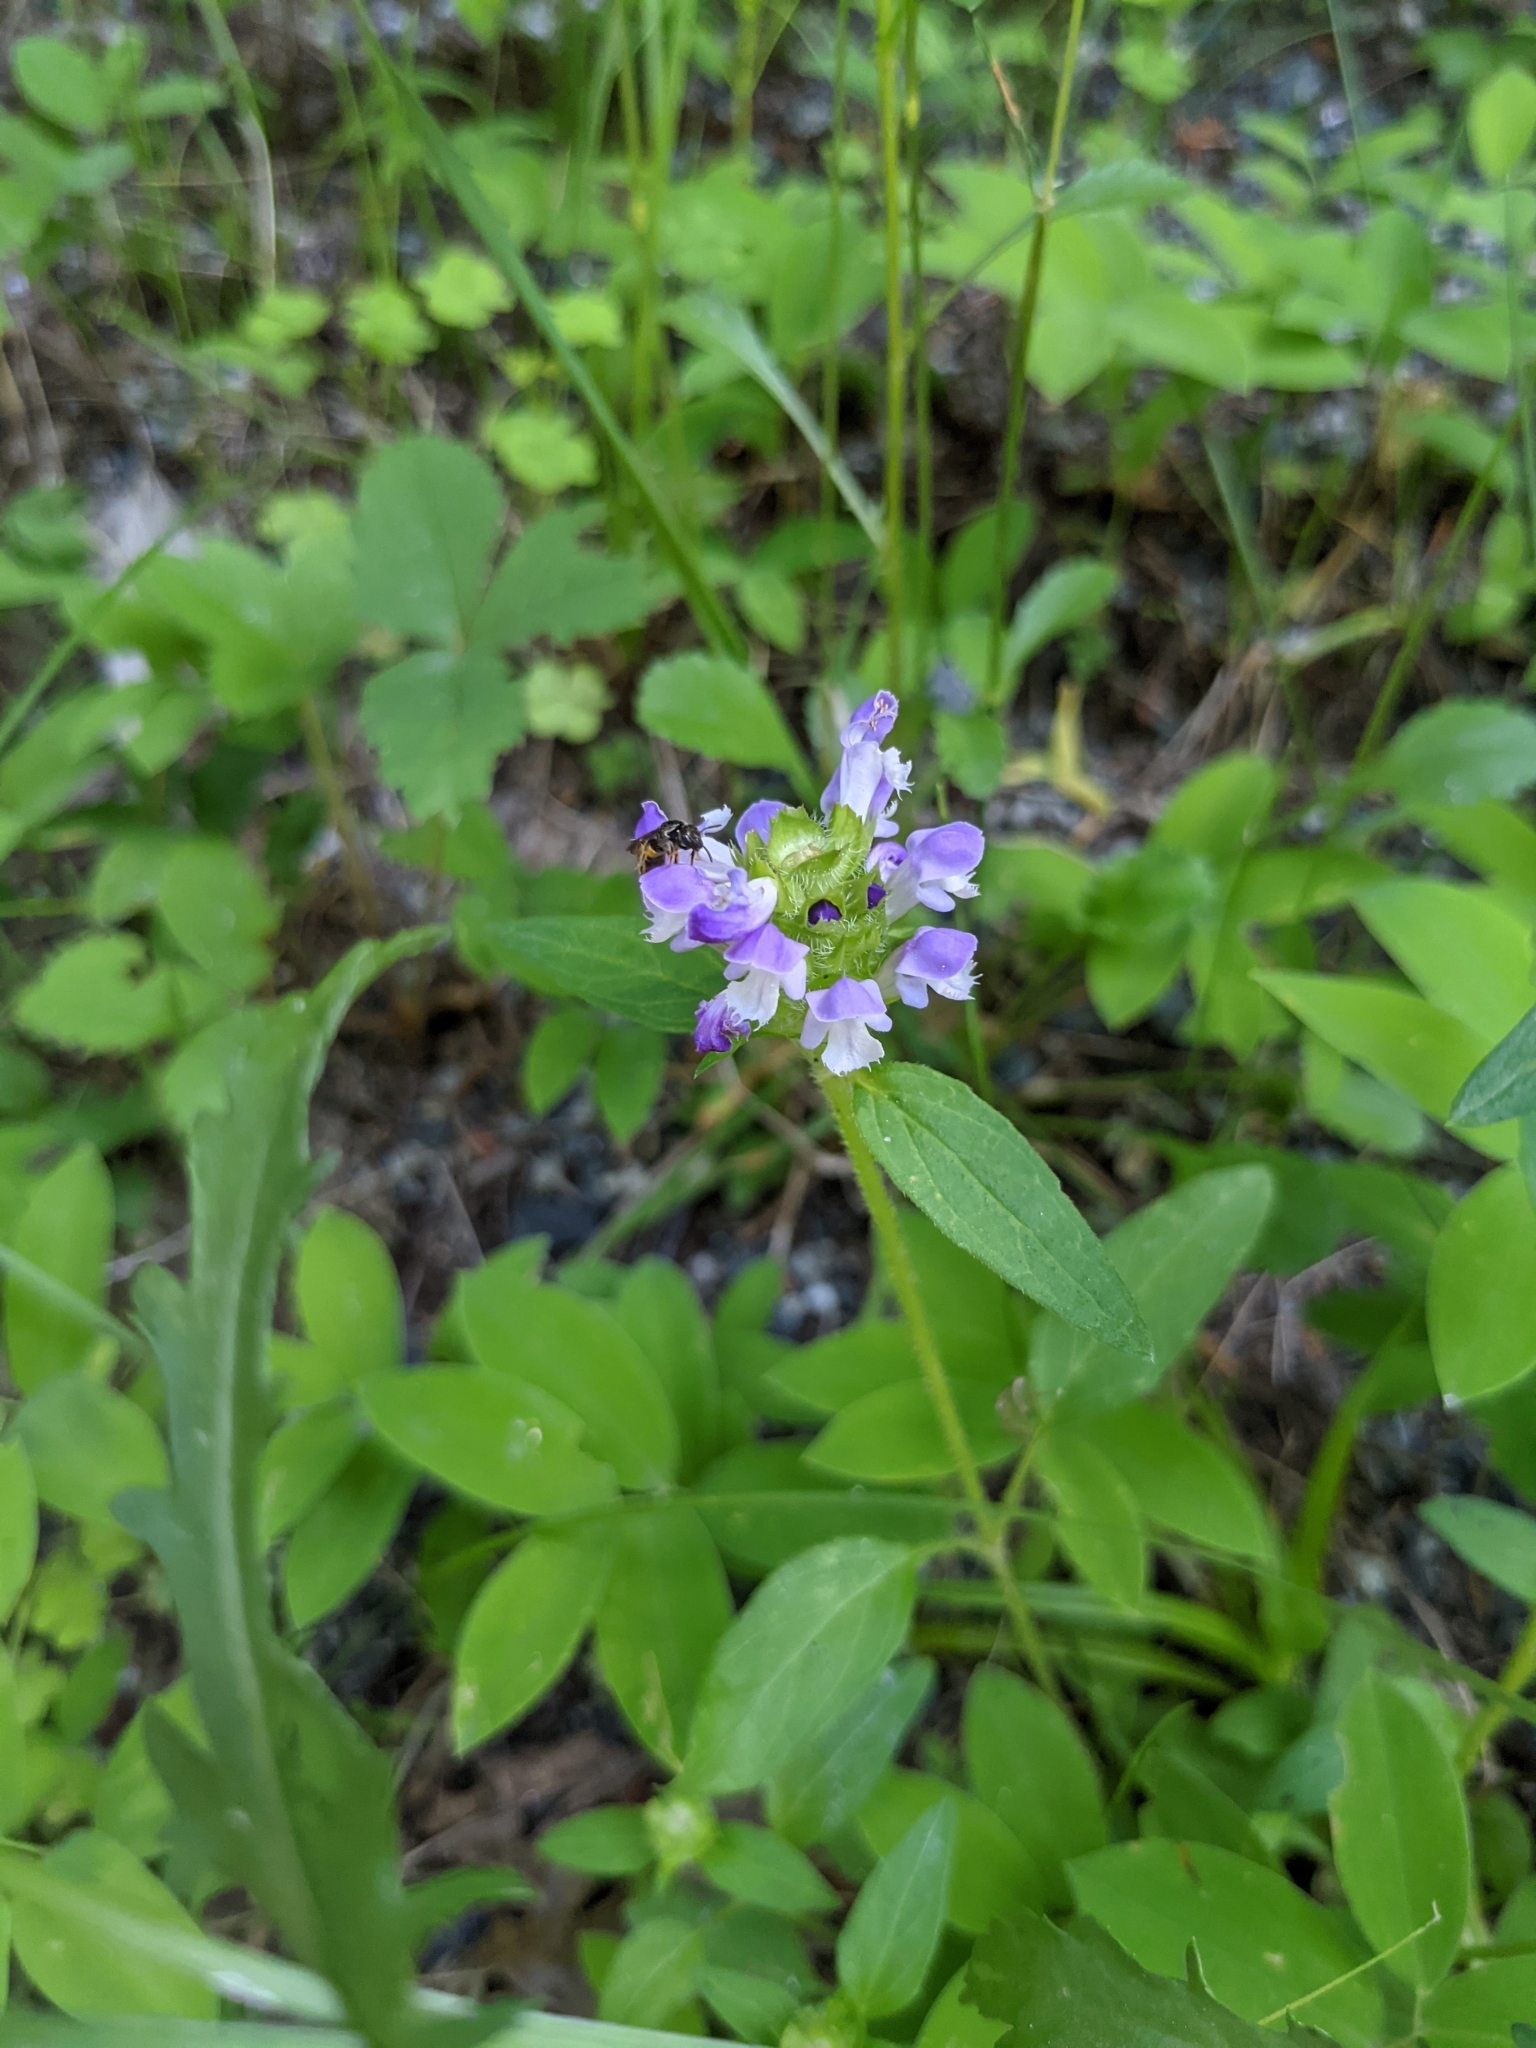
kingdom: Plantae
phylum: Tracheophyta
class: Magnoliopsida
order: Lamiales
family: Lamiaceae
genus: Prunella
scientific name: Prunella vulgaris
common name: Heal-all
